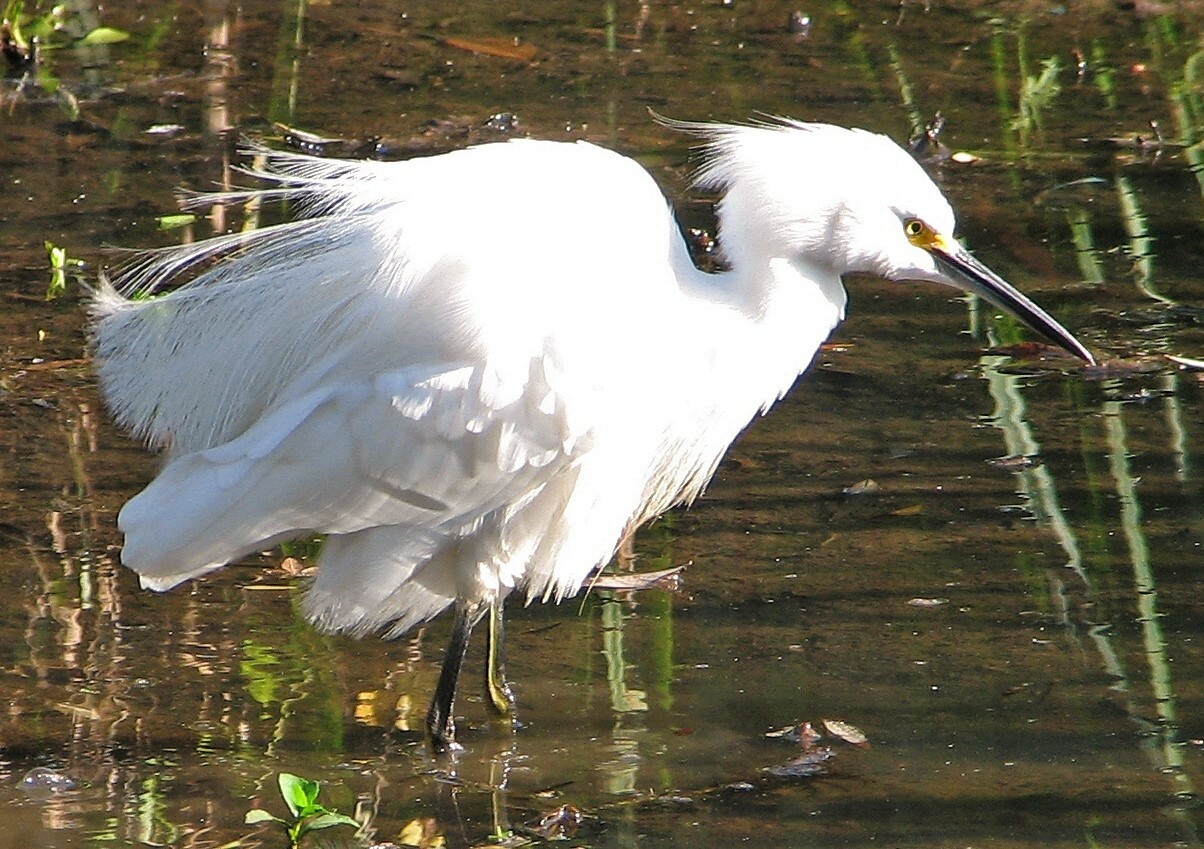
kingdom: Animalia
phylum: Chordata
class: Aves
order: Pelecaniformes
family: Ardeidae
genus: Egretta
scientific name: Egretta thula
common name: Snowy egret
